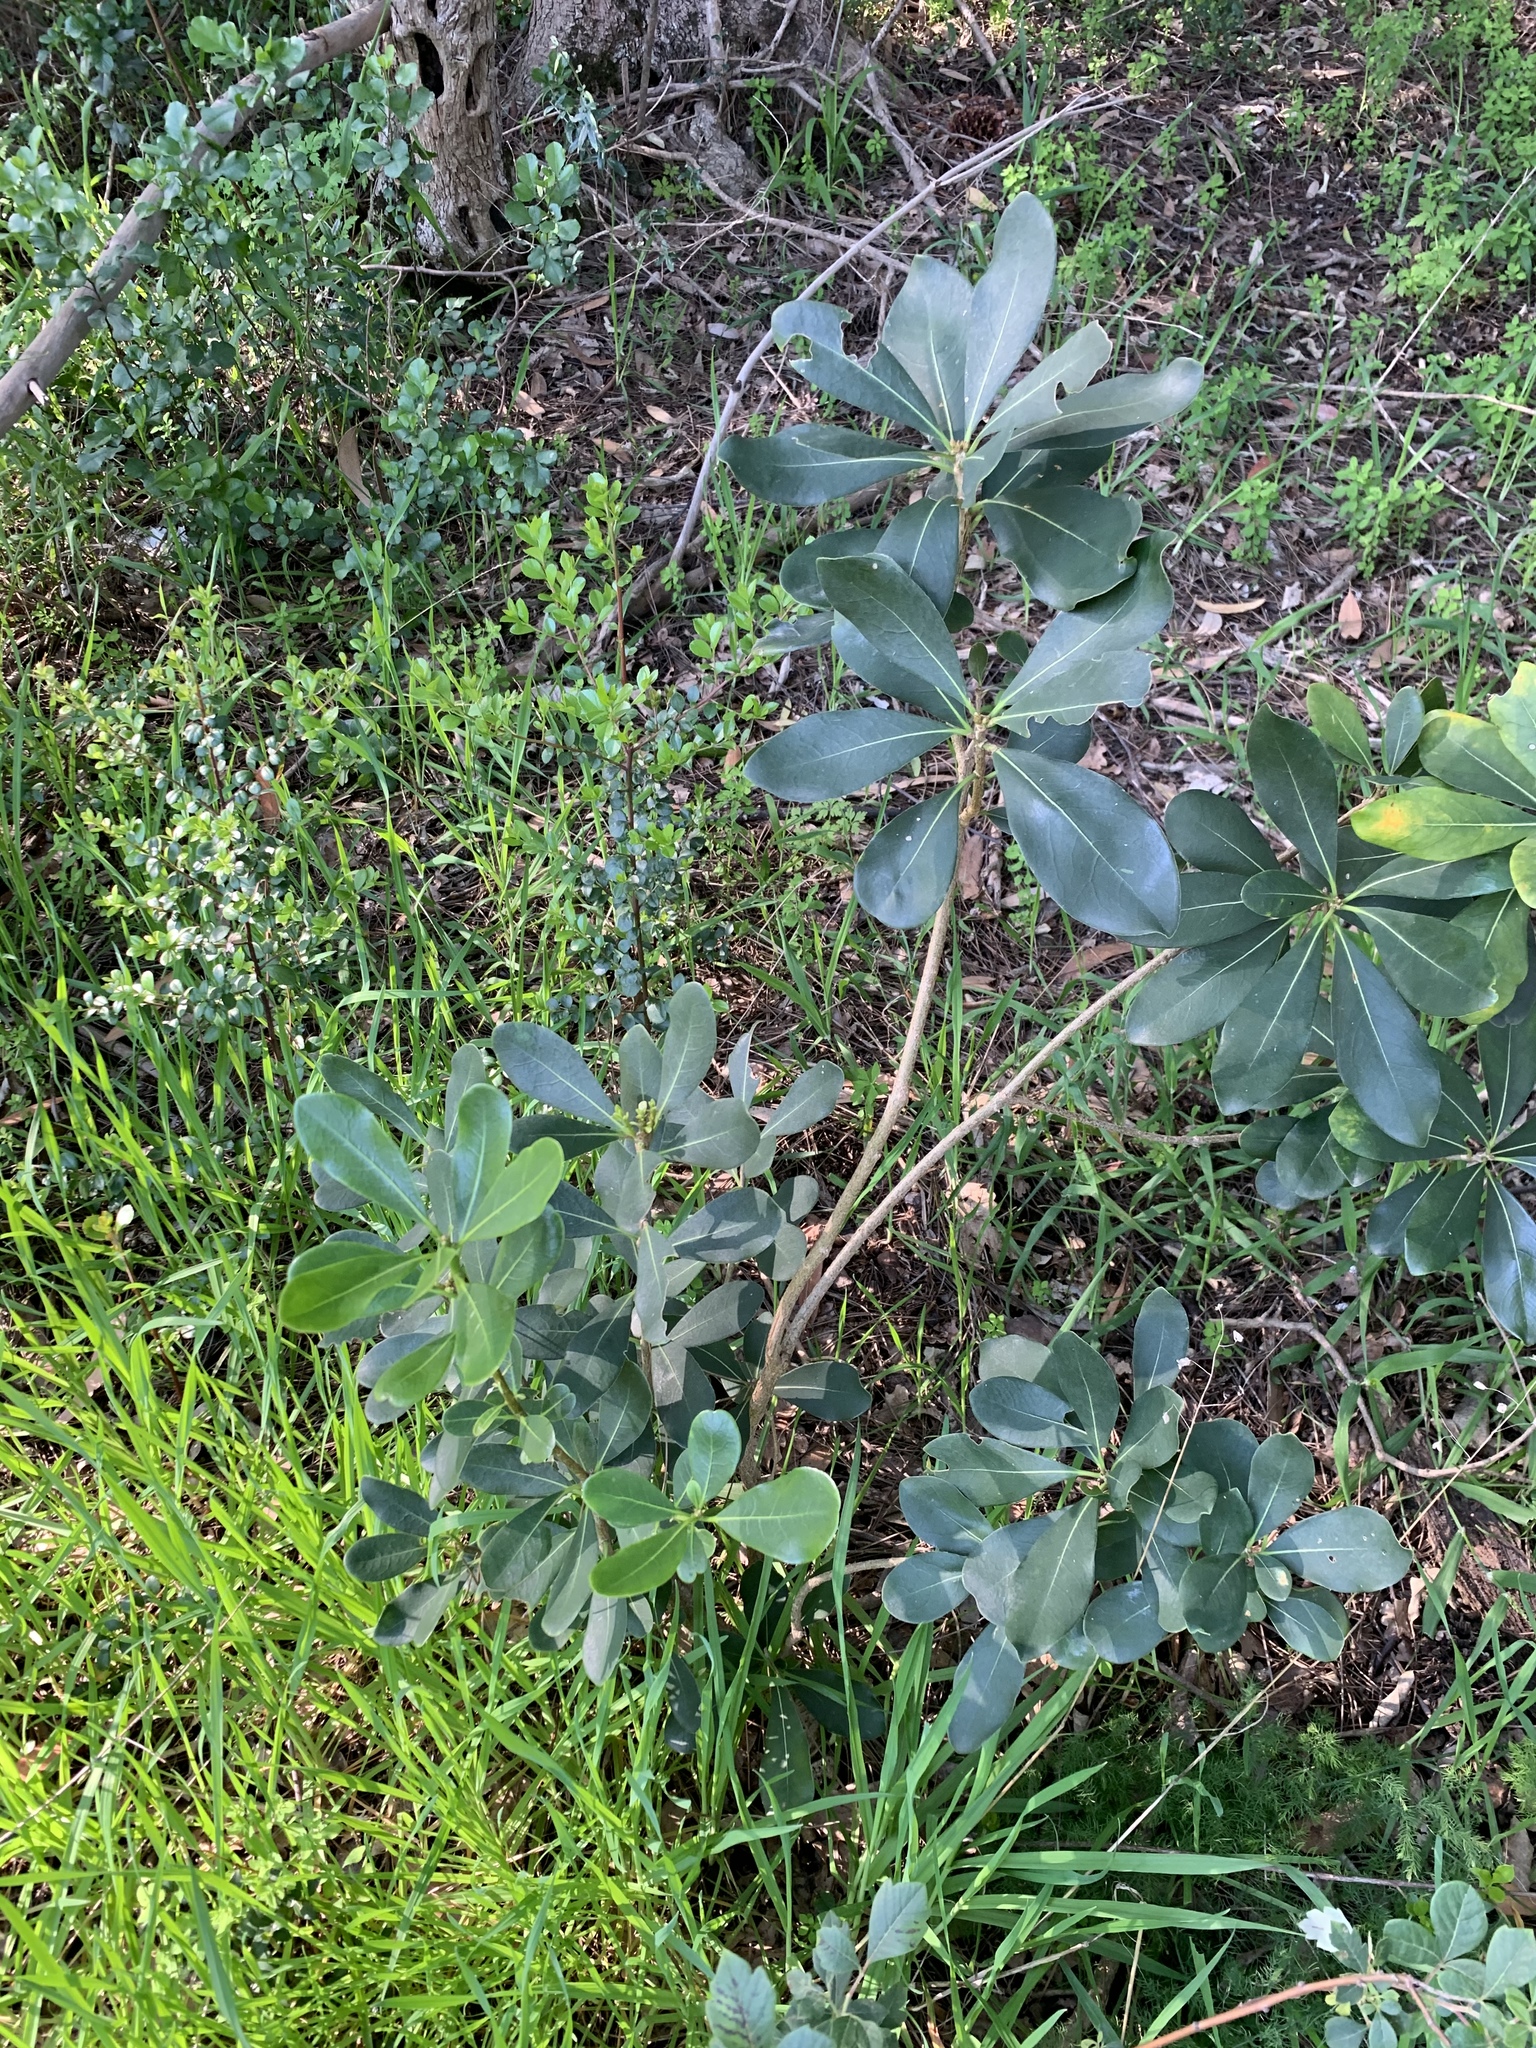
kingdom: Plantae
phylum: Tracheophyta
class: Magnoliopsida
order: Ericales
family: Primulaceae
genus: Myrsine
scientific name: Myrsine melanophloeos
